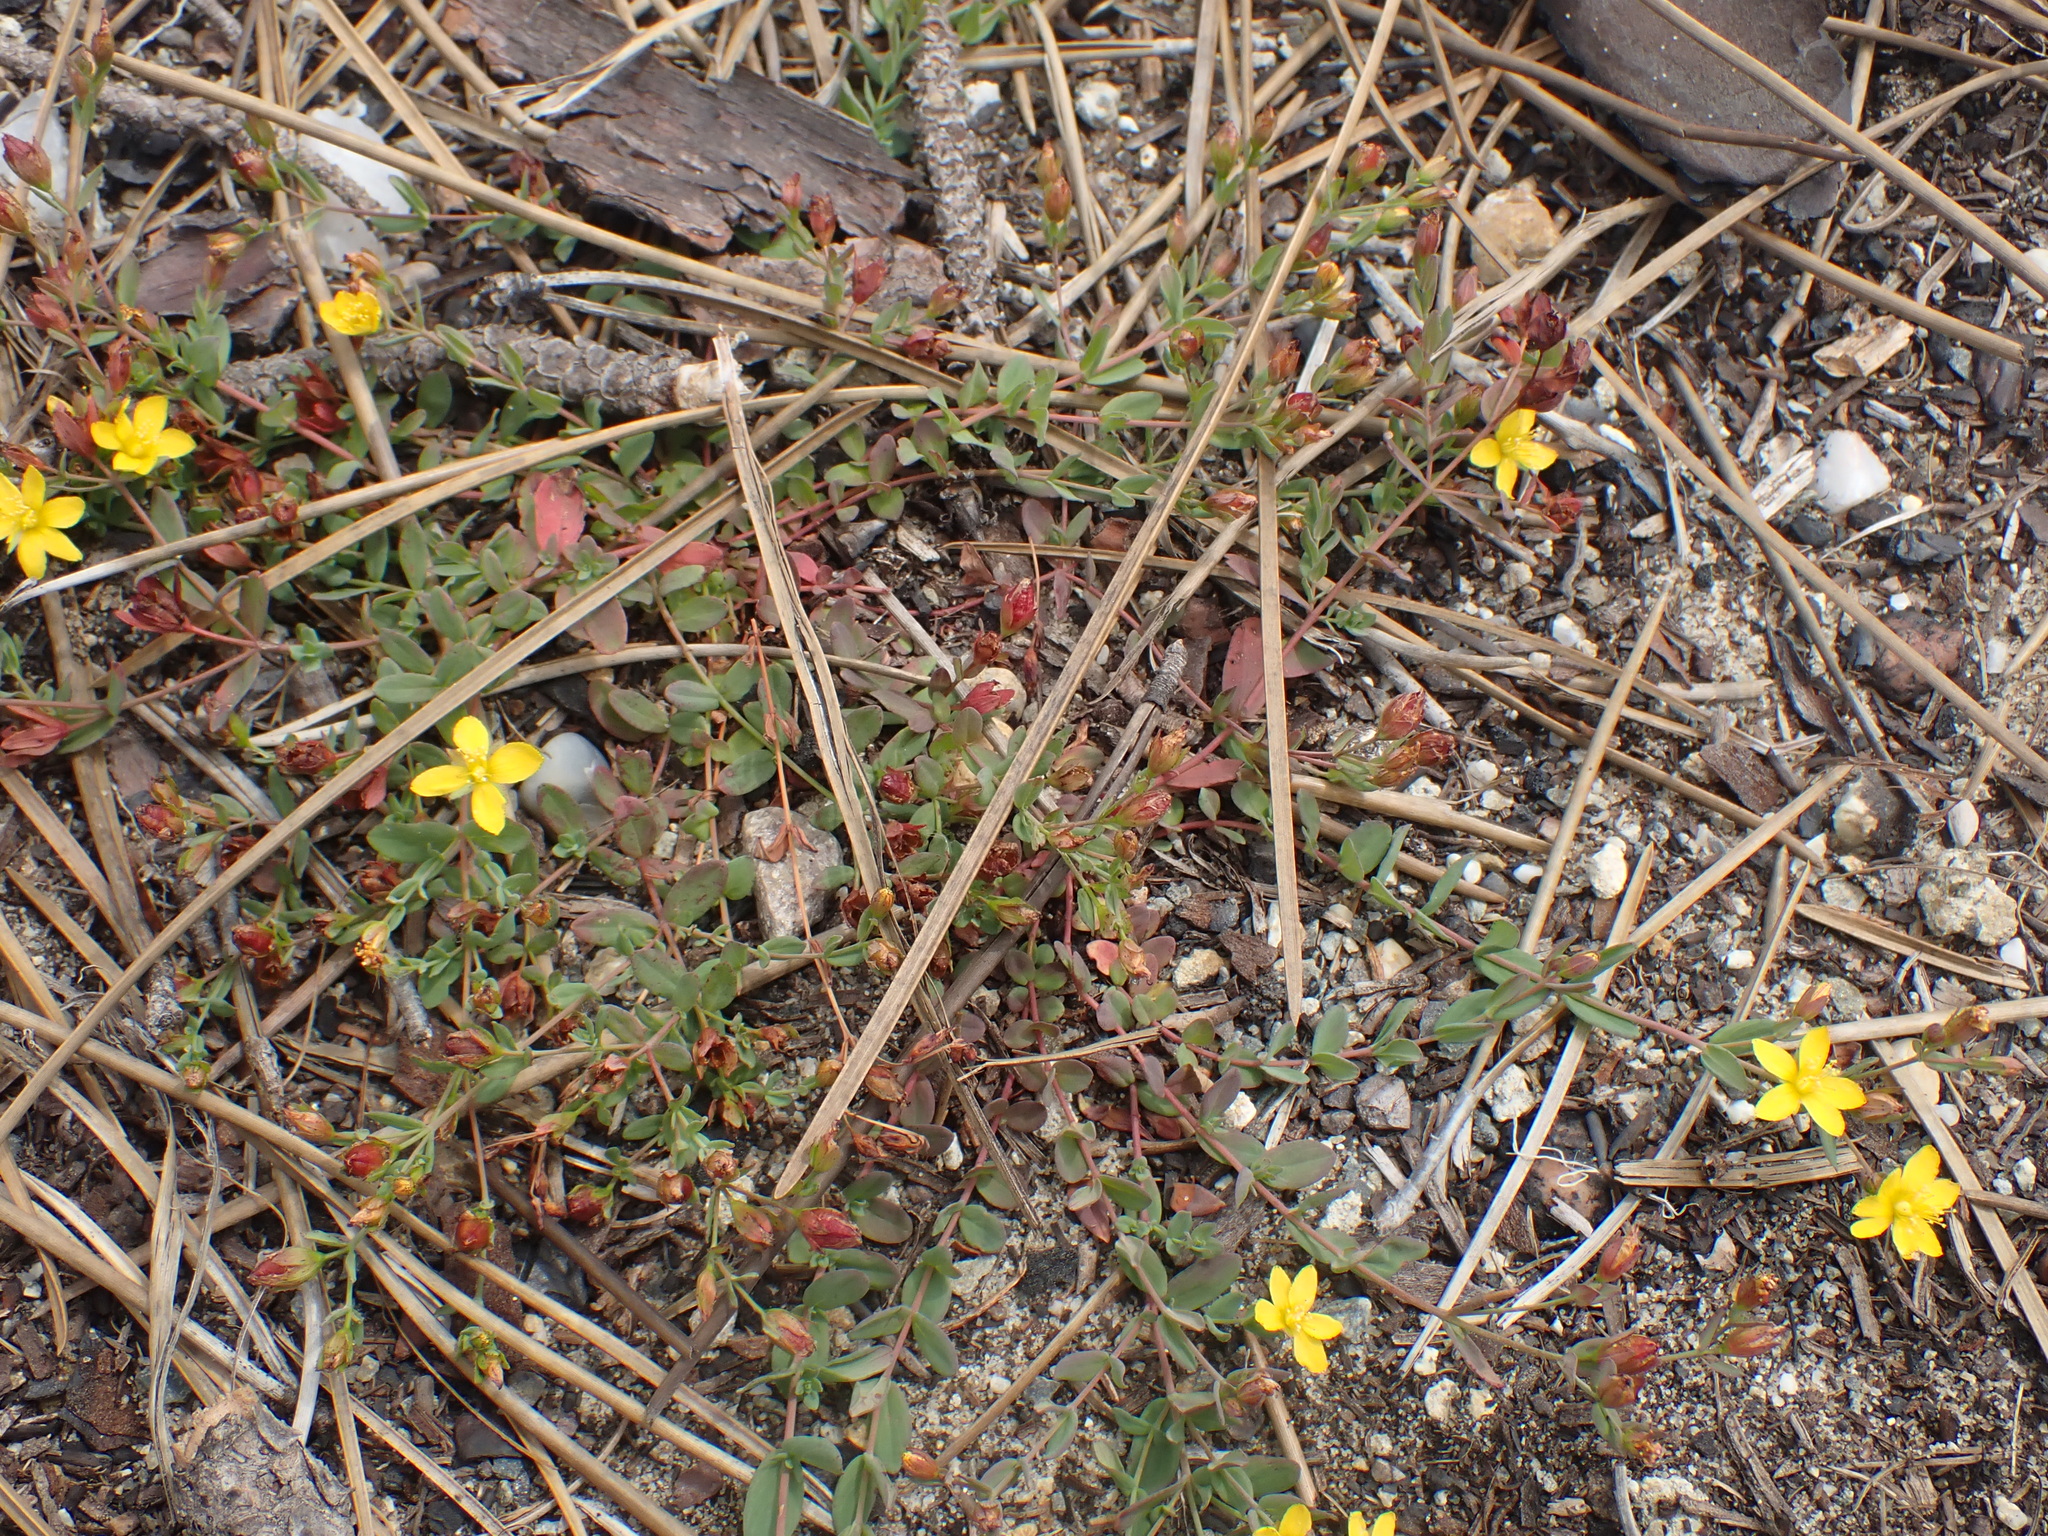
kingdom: Plantae
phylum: Tracheophyta
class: Magnoliopsida
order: Malpighiales
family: Hypericaceae
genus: Hypericum
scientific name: Hypericum humifusum
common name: Trailing st. john's-wort
